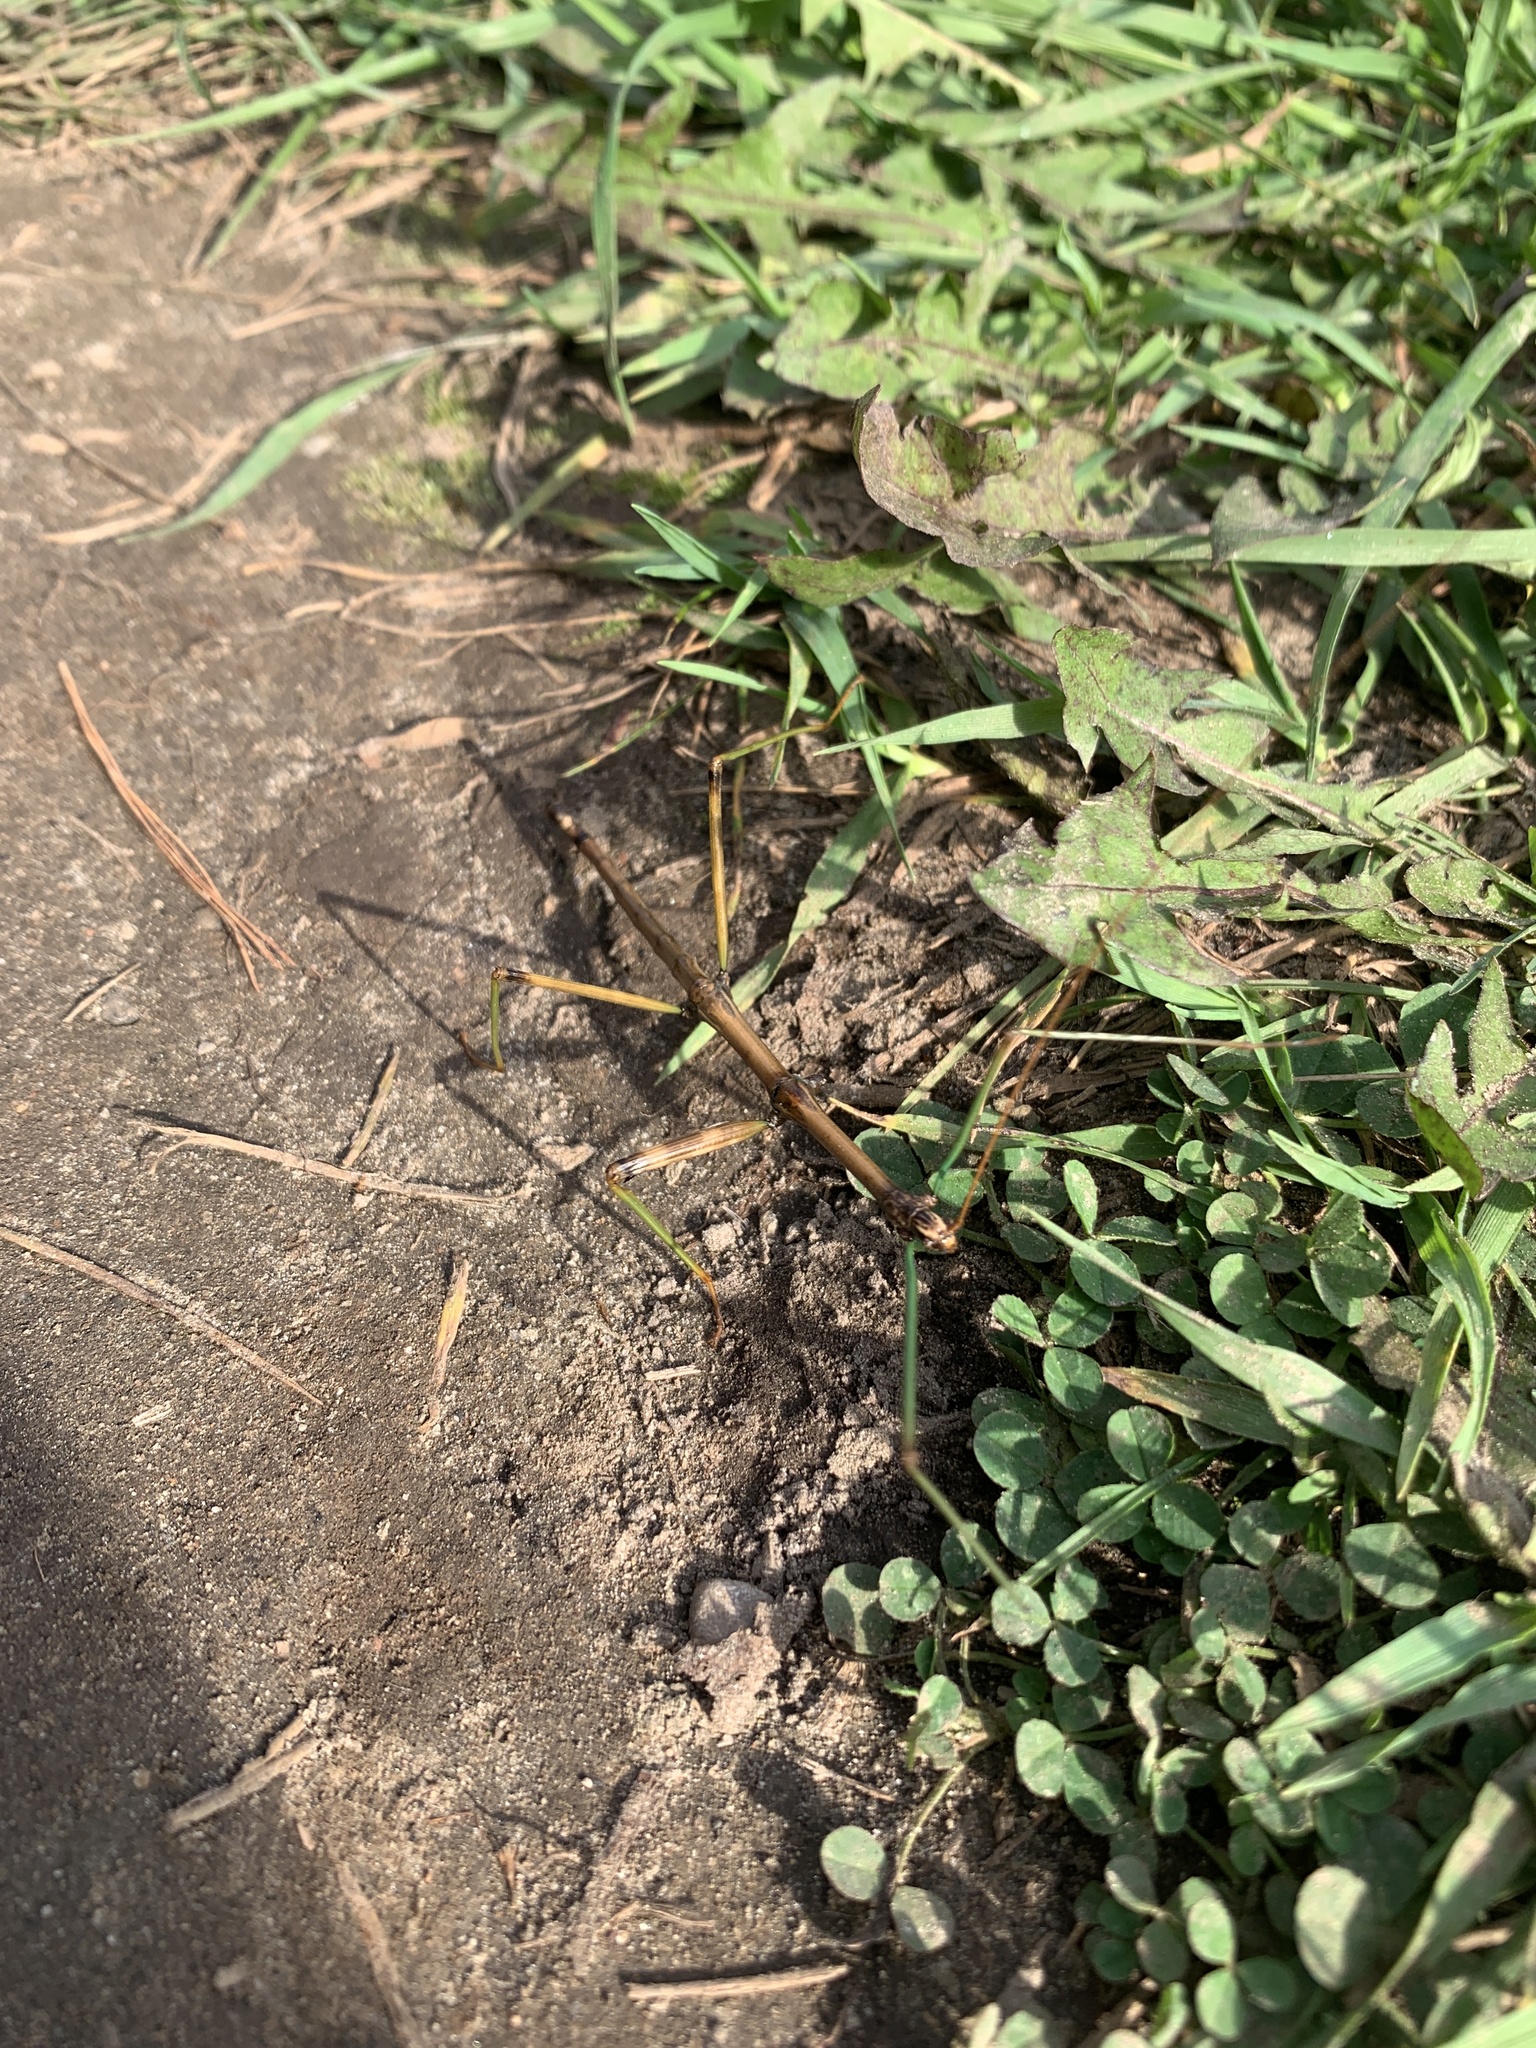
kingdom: Animalia
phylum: Arthropoda
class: Insecta
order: Phasmida
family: Diapheromeridae
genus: Diapheromera
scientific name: Diapheromera femorata
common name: Common american walkingstick
